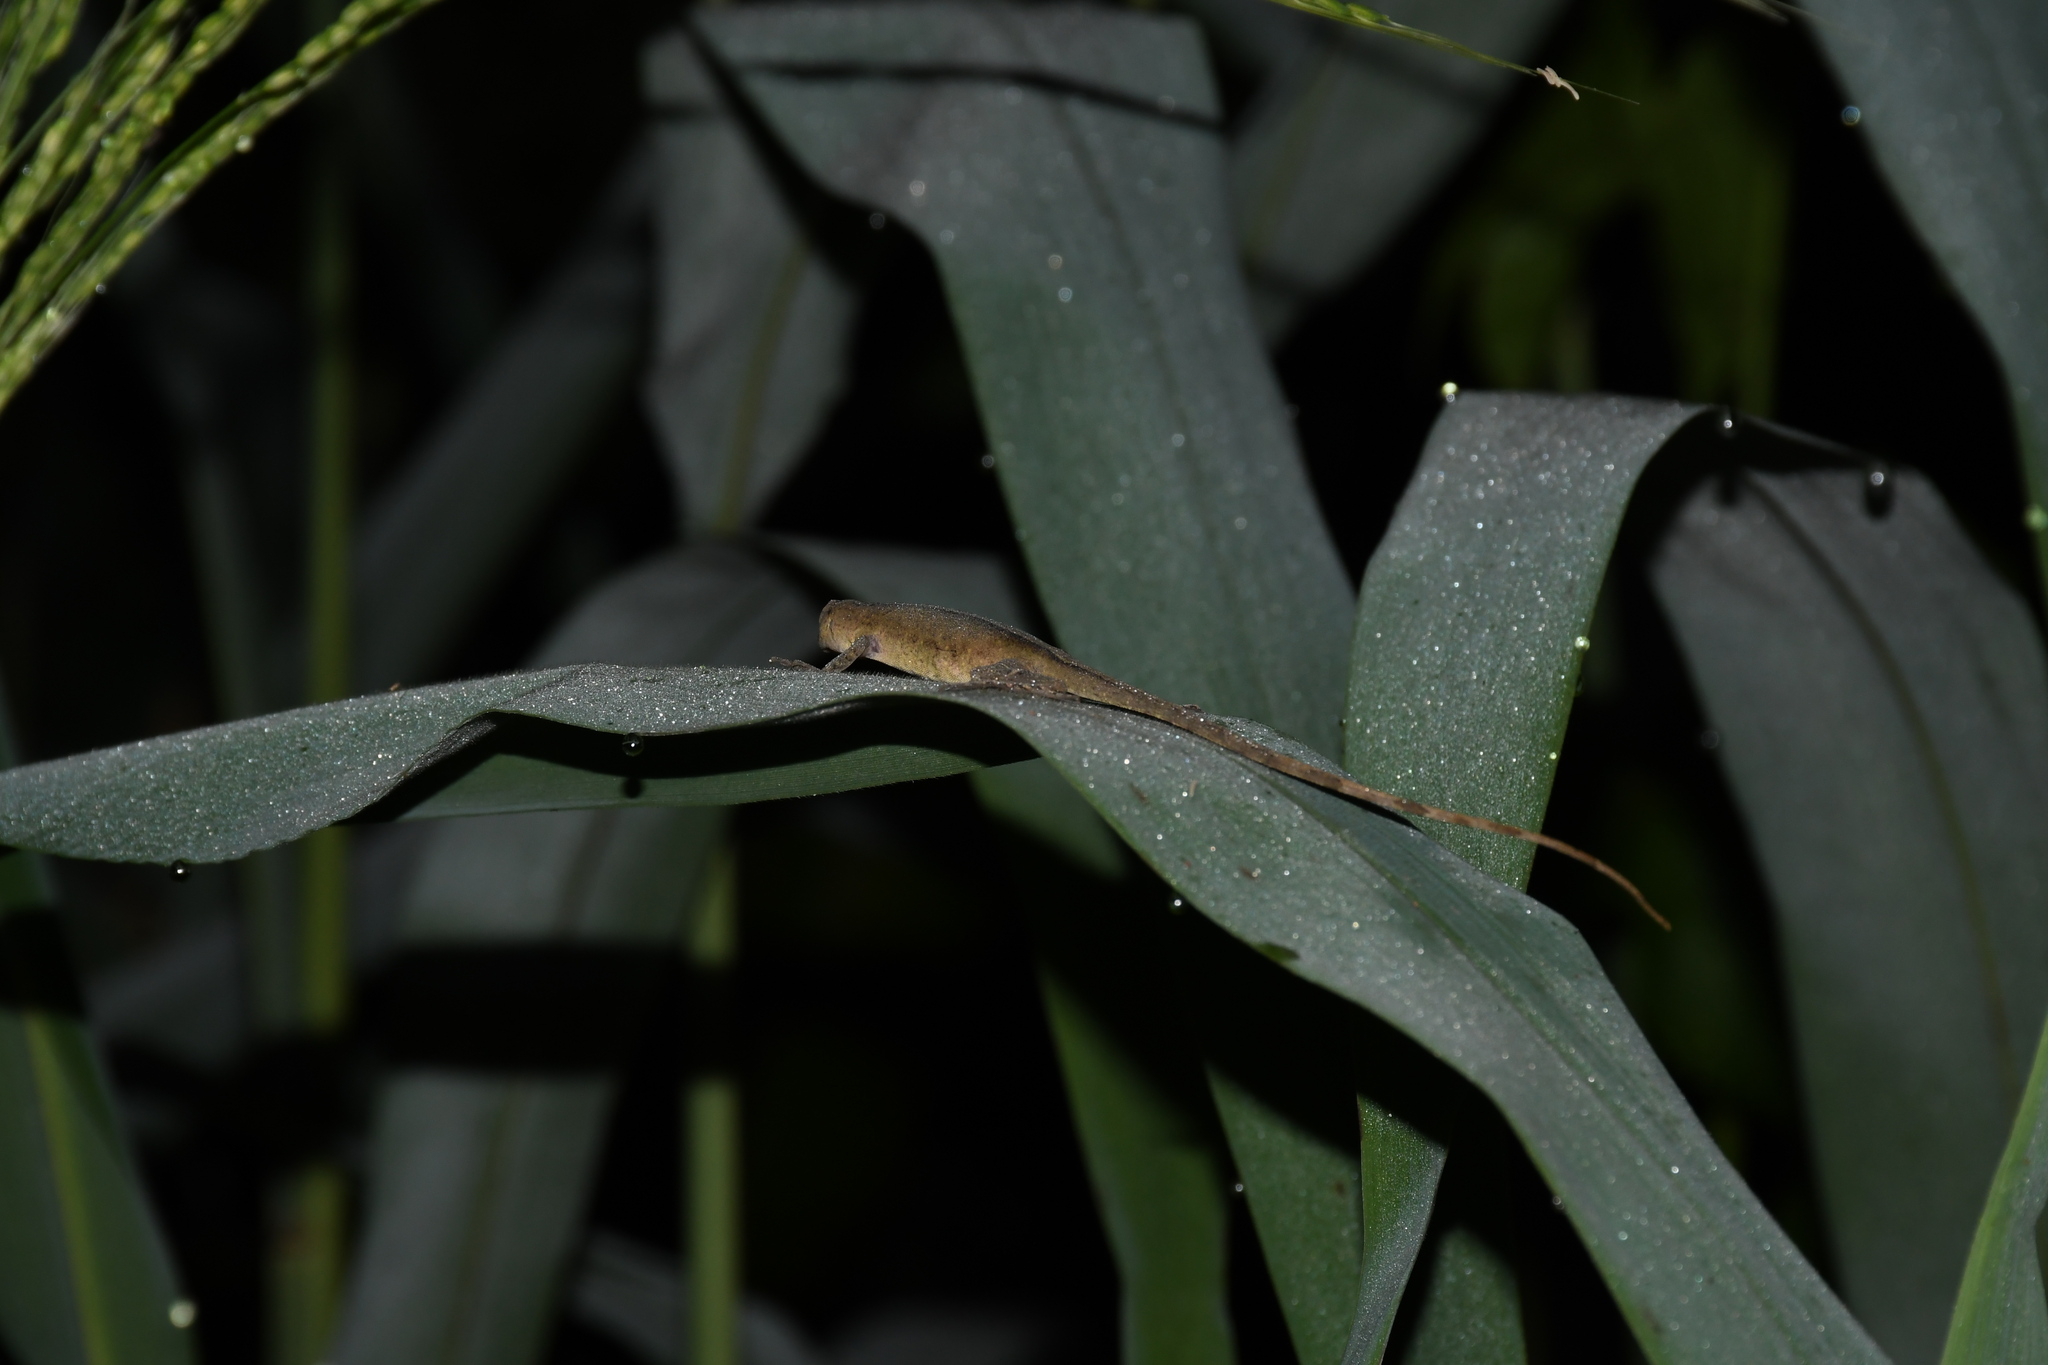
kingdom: Animalia
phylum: Chordata
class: Squamata
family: Dactyloidae
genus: Anolis
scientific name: Anolis fuscoauratus
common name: Brown-eared anole
